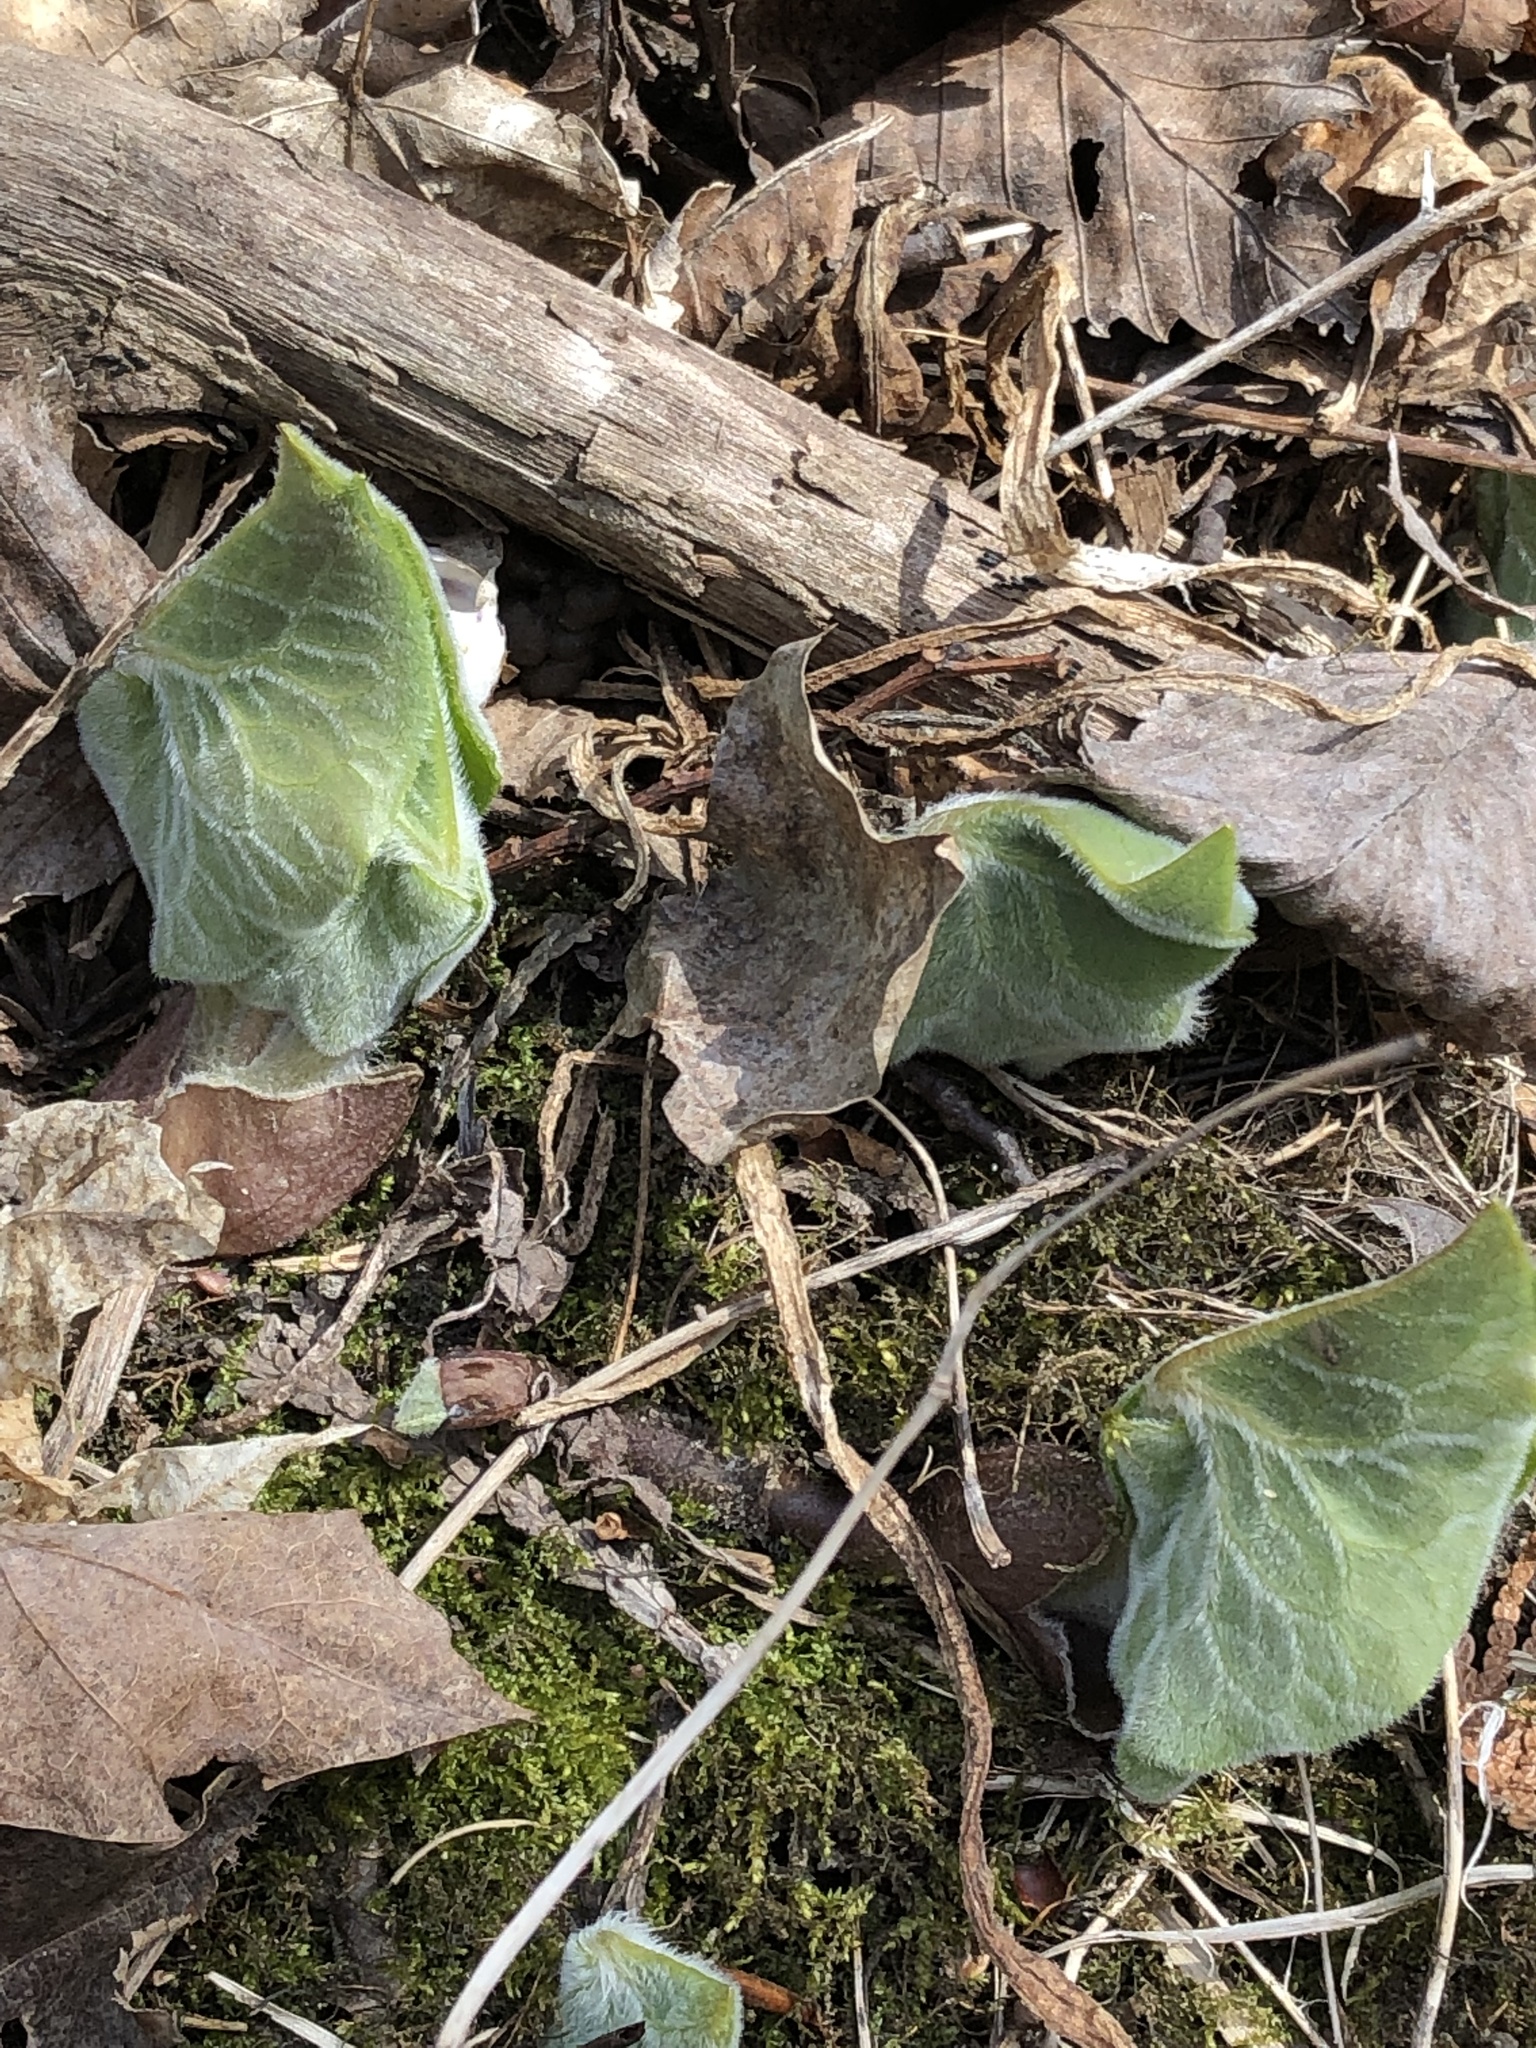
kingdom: Plantae
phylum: Tracheophyta
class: Magnoliopsida
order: Piperales
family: Aristolochiaceae
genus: Asarum
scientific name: Asarum canadense
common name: Wild ginger
